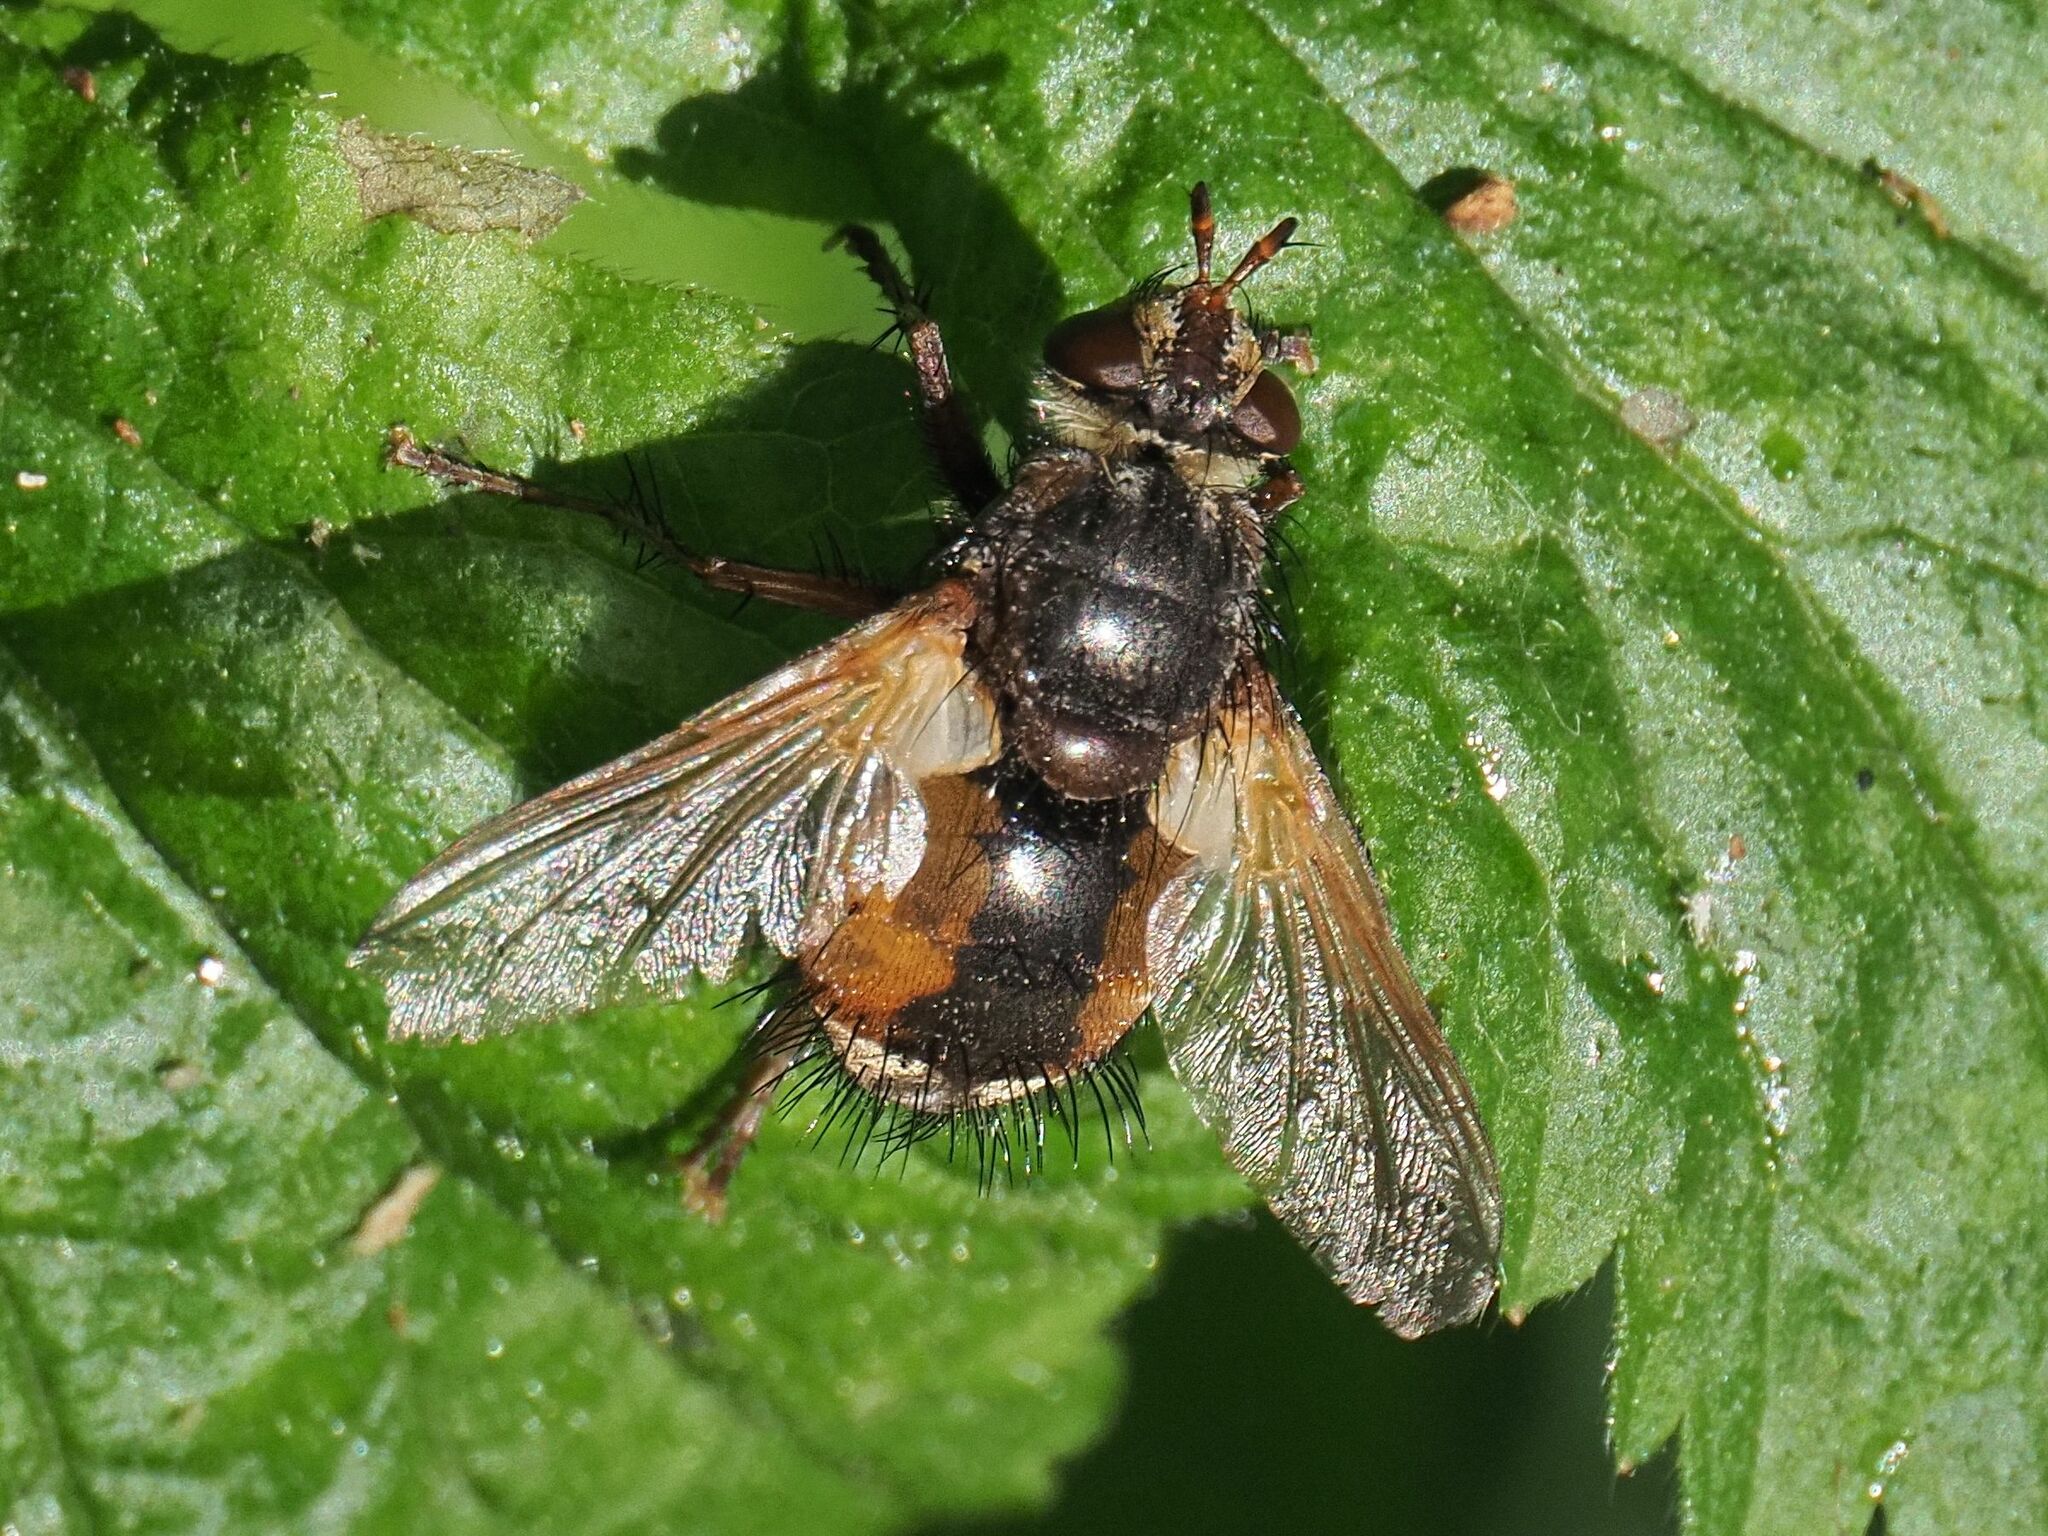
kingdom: Animalia
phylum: Arthropoda
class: Insecta
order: Diptera
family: Tachinidae
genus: Tachina
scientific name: Tachina fera
